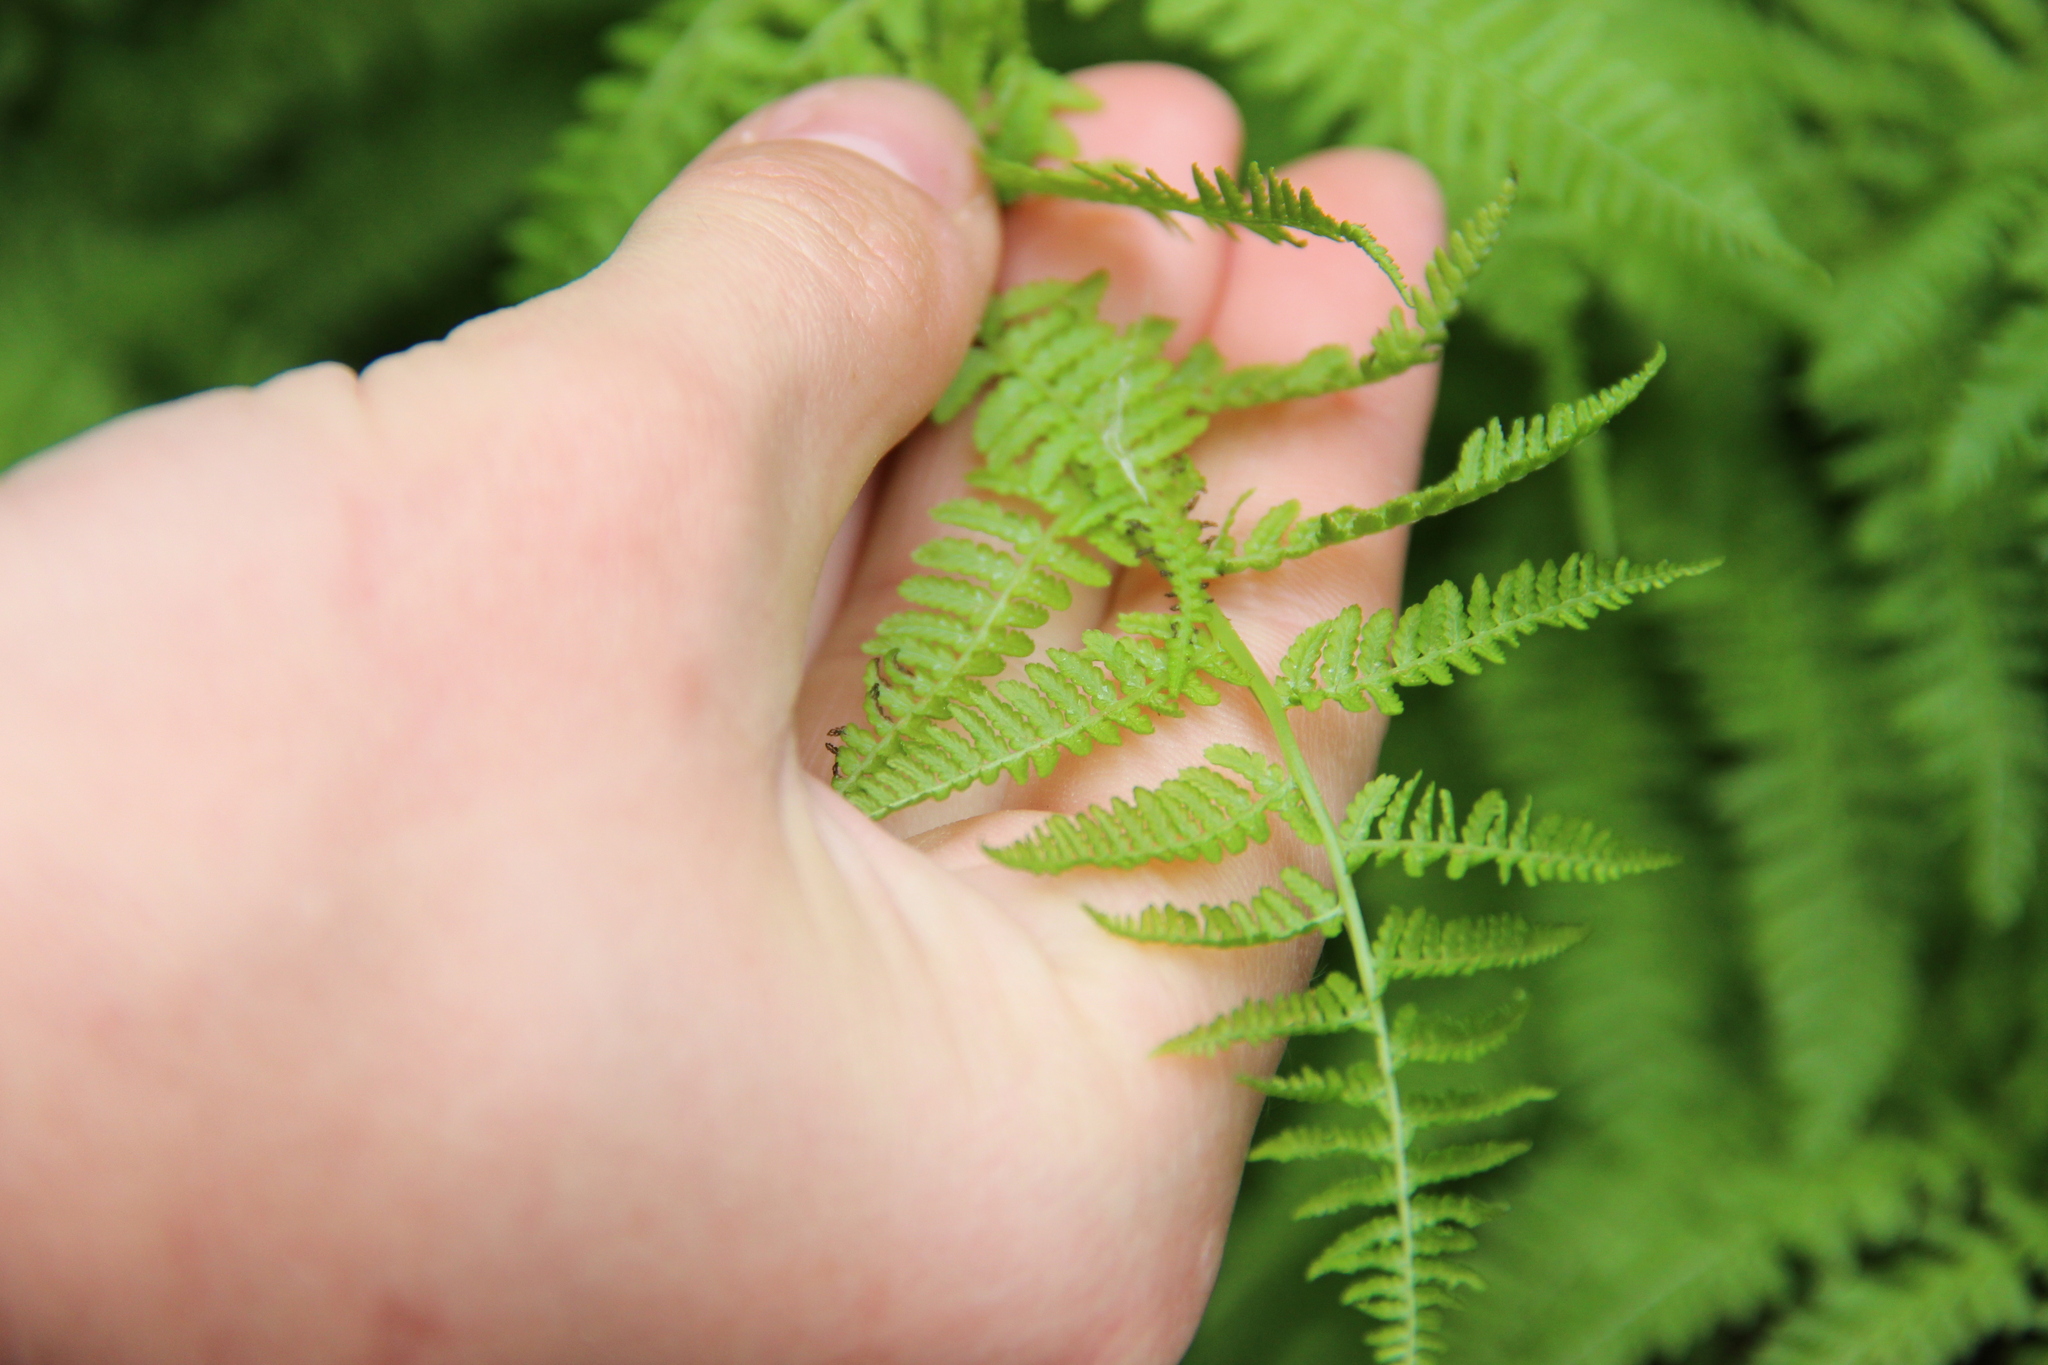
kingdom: Plantae
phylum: Tracheophyta
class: Polypodiopsida
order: Polypodiales
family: Athyriaceae
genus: Athyrium
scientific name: Athyrium filix-femina
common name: Lady fern
